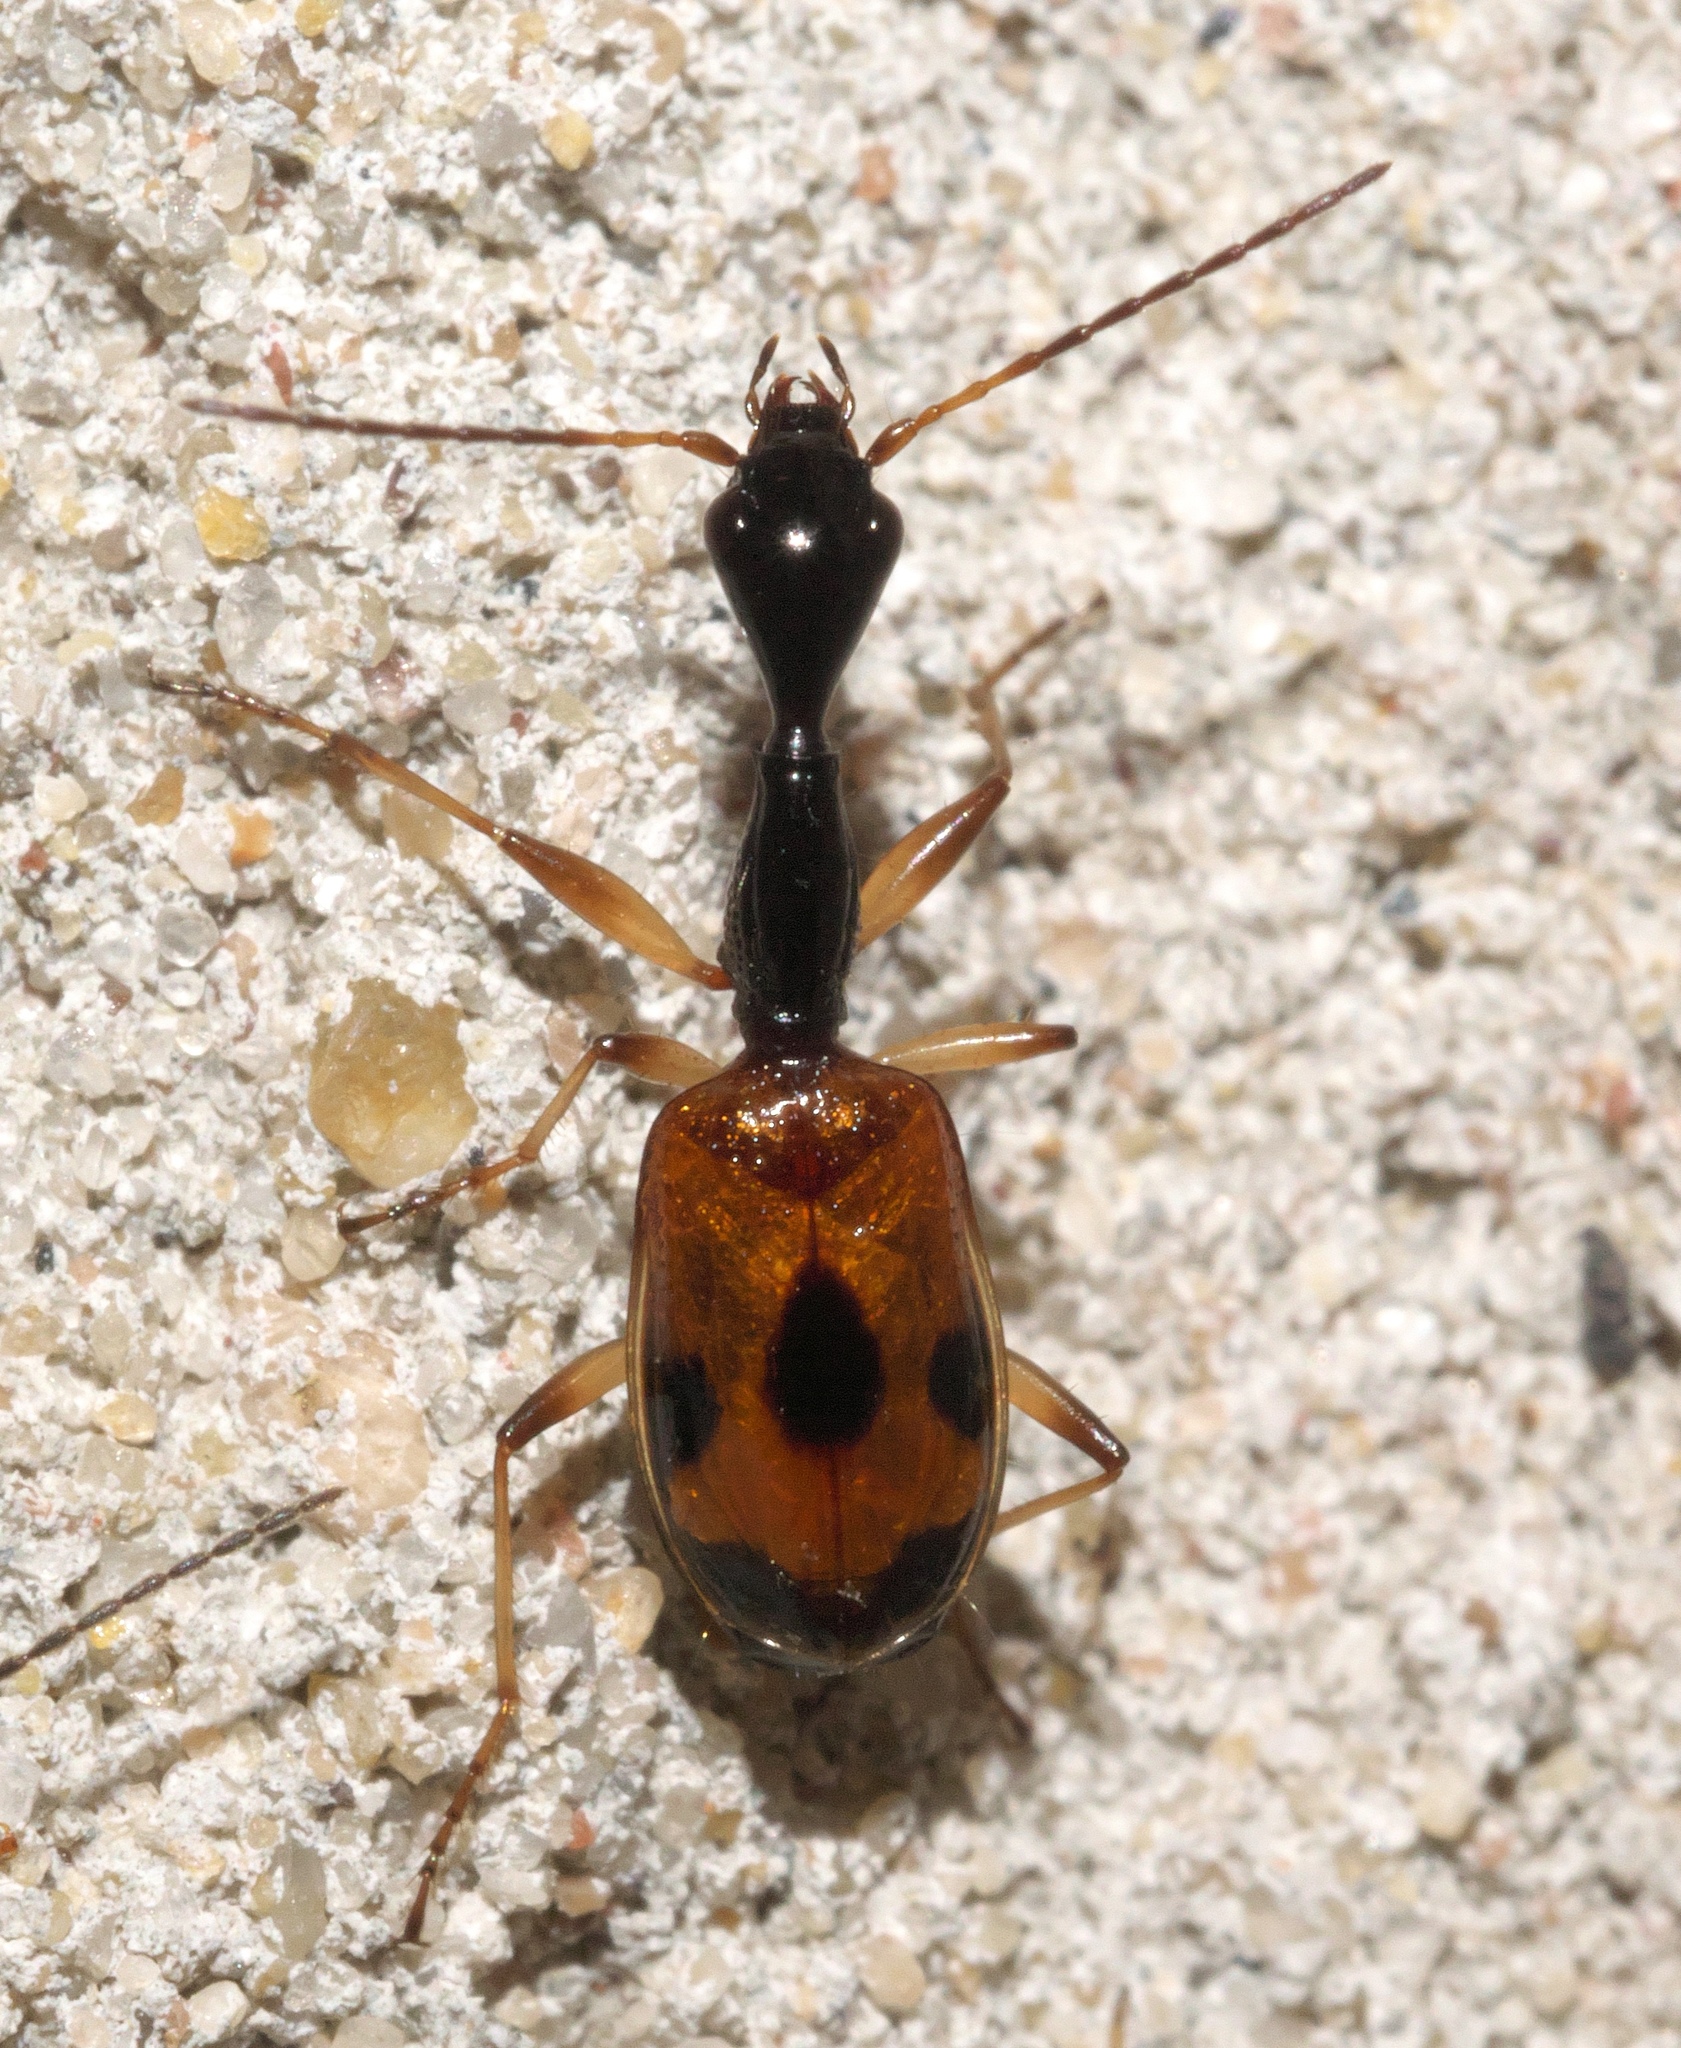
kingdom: Animalia
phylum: Arthropoda
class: Insecta
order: Coleoptera
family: Carabidae
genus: Colliuris
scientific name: Colliuris pensylvanica
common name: Long-necked ground beetle
